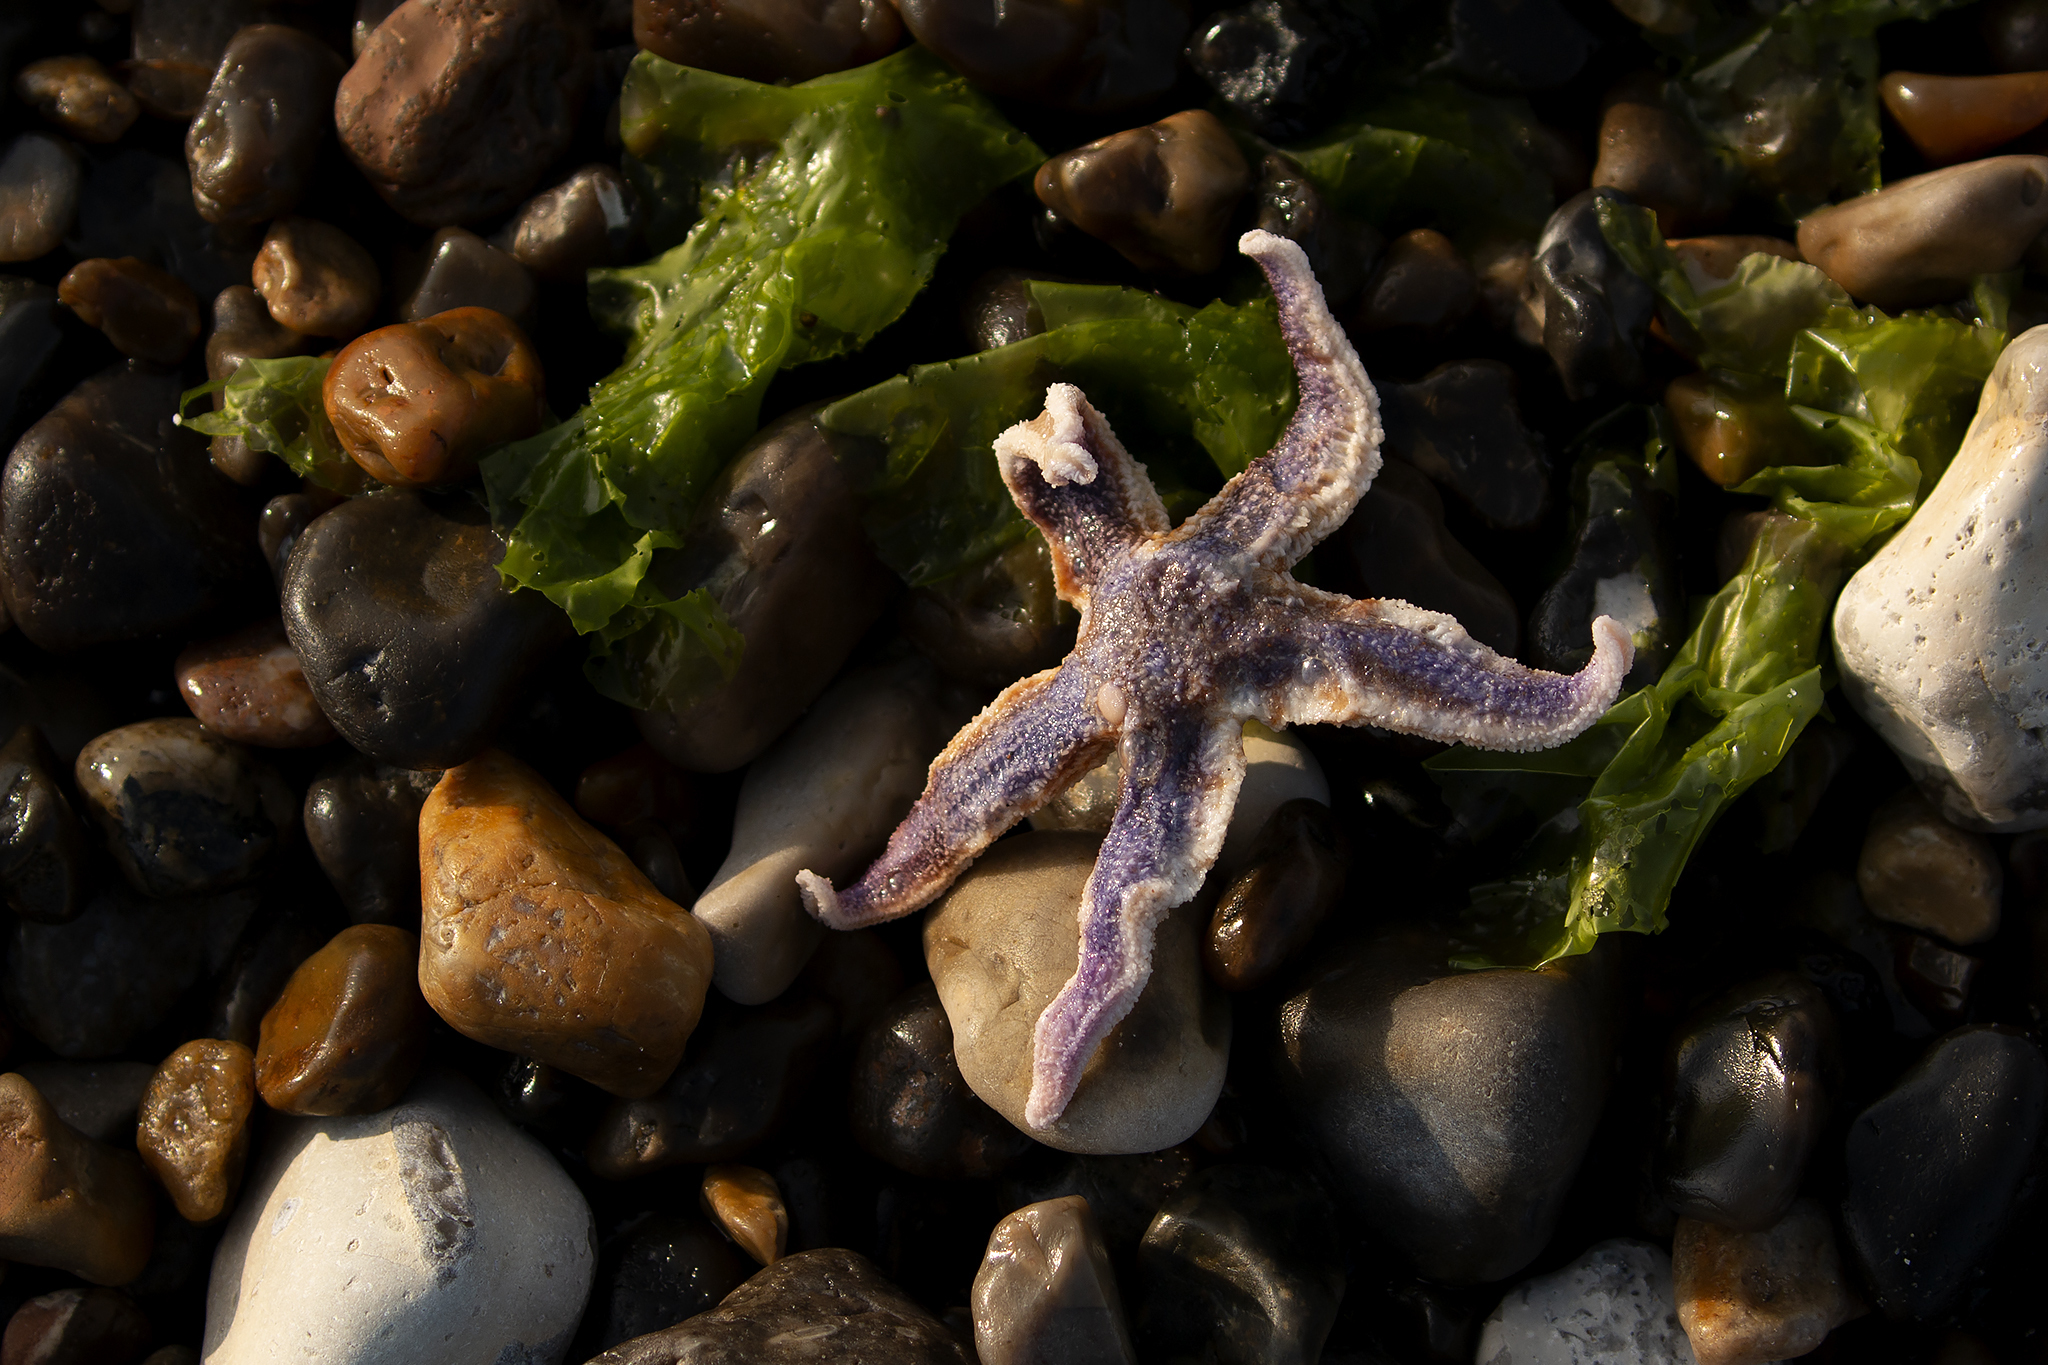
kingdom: Animalia
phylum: Echinodermata
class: Asteroidea
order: Forcipulatida
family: Asteriidae
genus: Asterias
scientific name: Asterias rubens
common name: Common starfish
